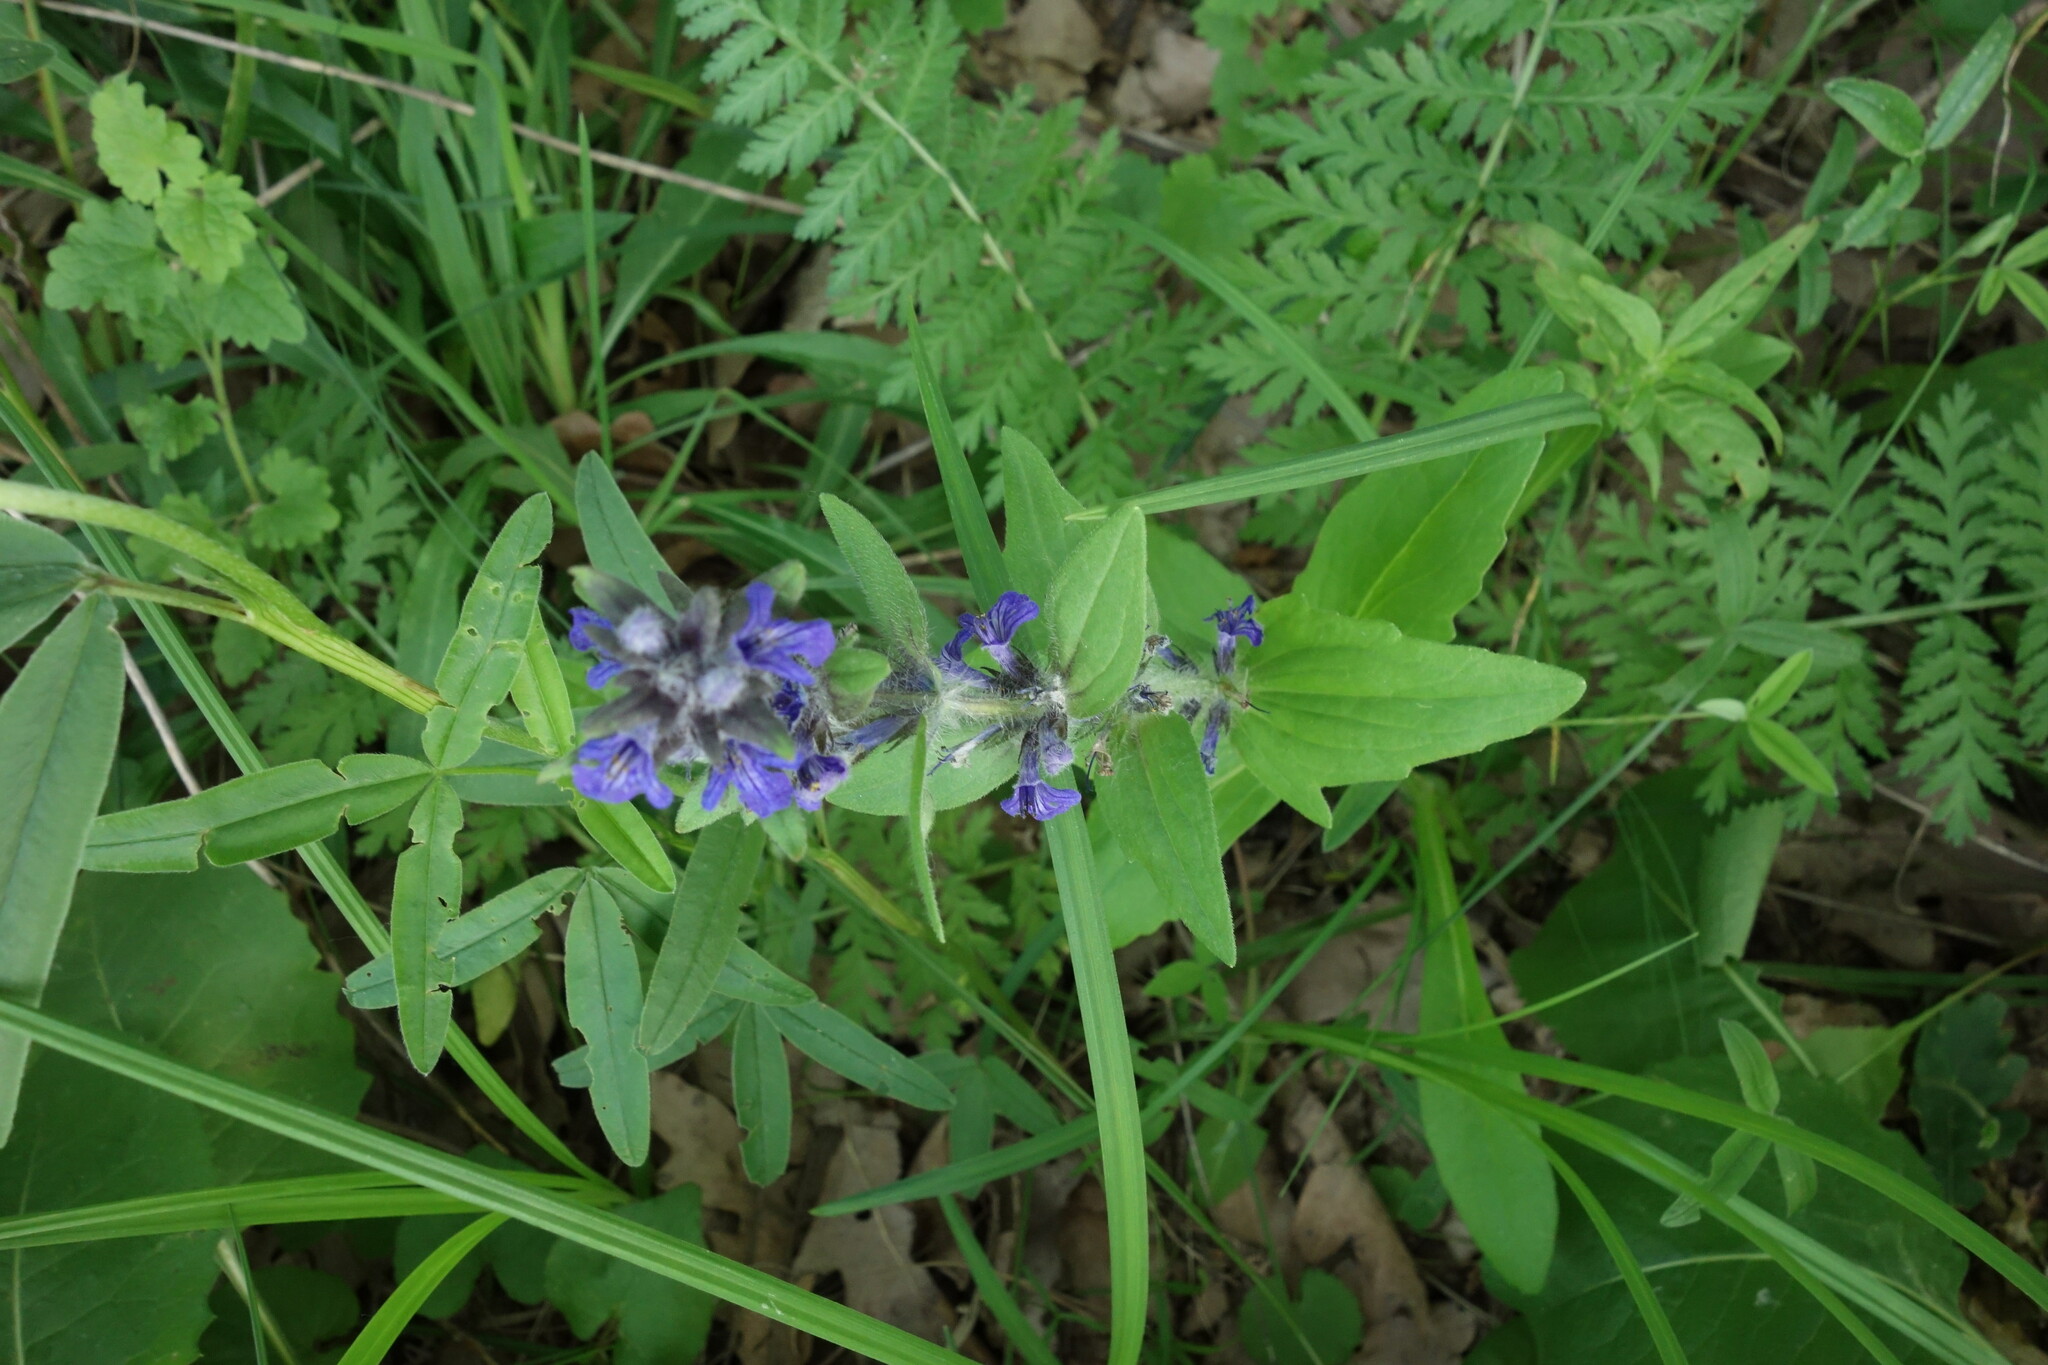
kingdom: Plantae
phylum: Tracheophyta
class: Magnoliopsida
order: Lamiales
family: Lamiaceae
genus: Ajuga
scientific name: Ajuga genevensis
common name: Blue bugle
